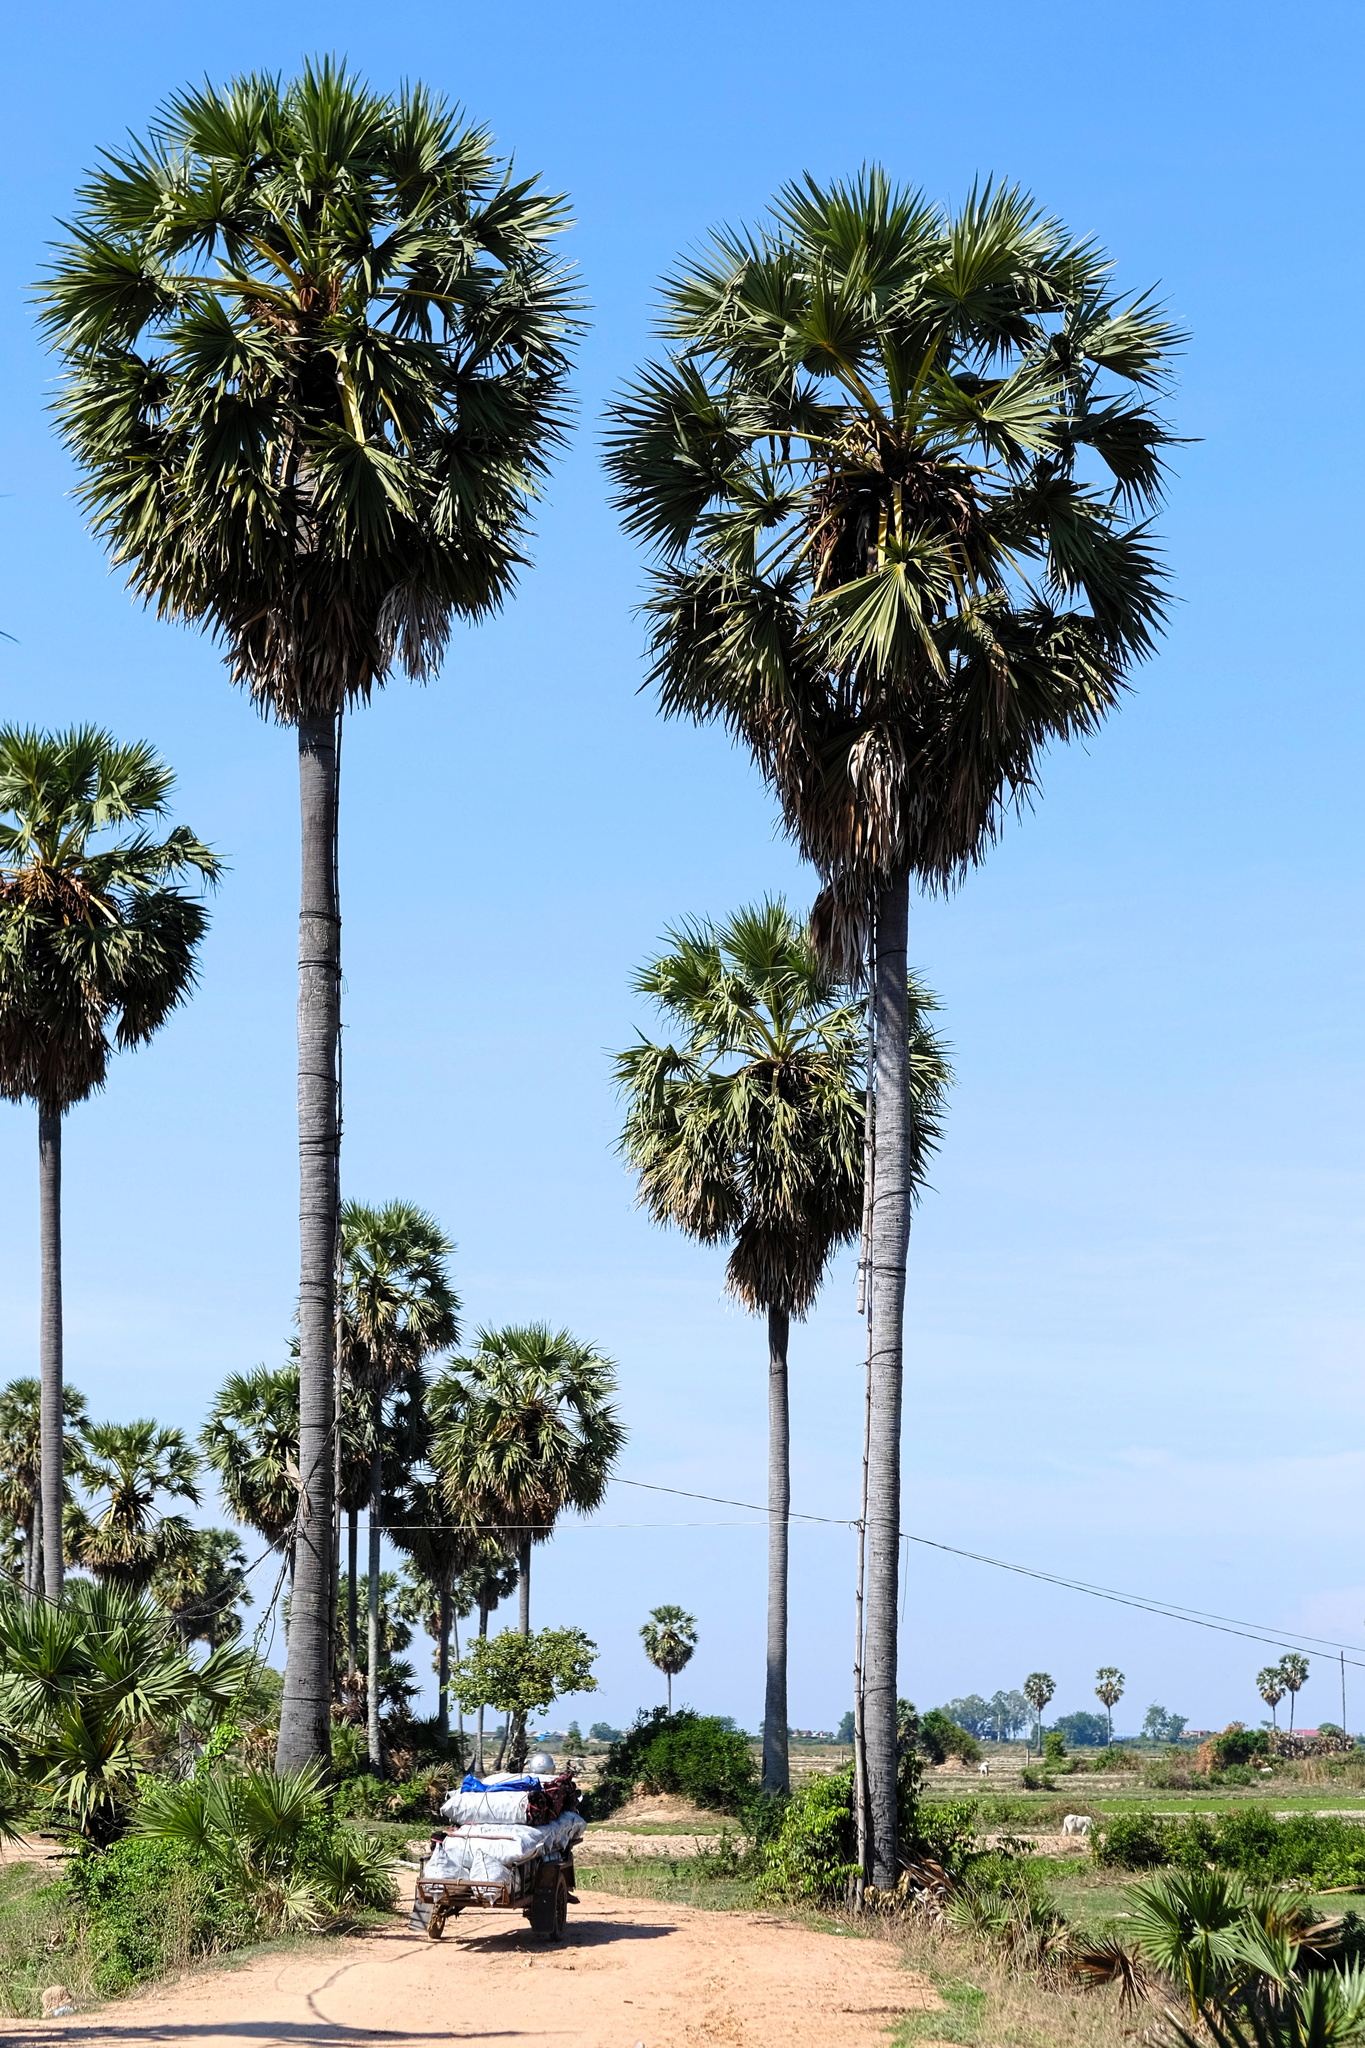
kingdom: Plantae
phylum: Tracheophyta
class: Liliopsida
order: Arecales
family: Arecaceae
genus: Borassus
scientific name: Borassus flabellifer
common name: Palmyra palm
